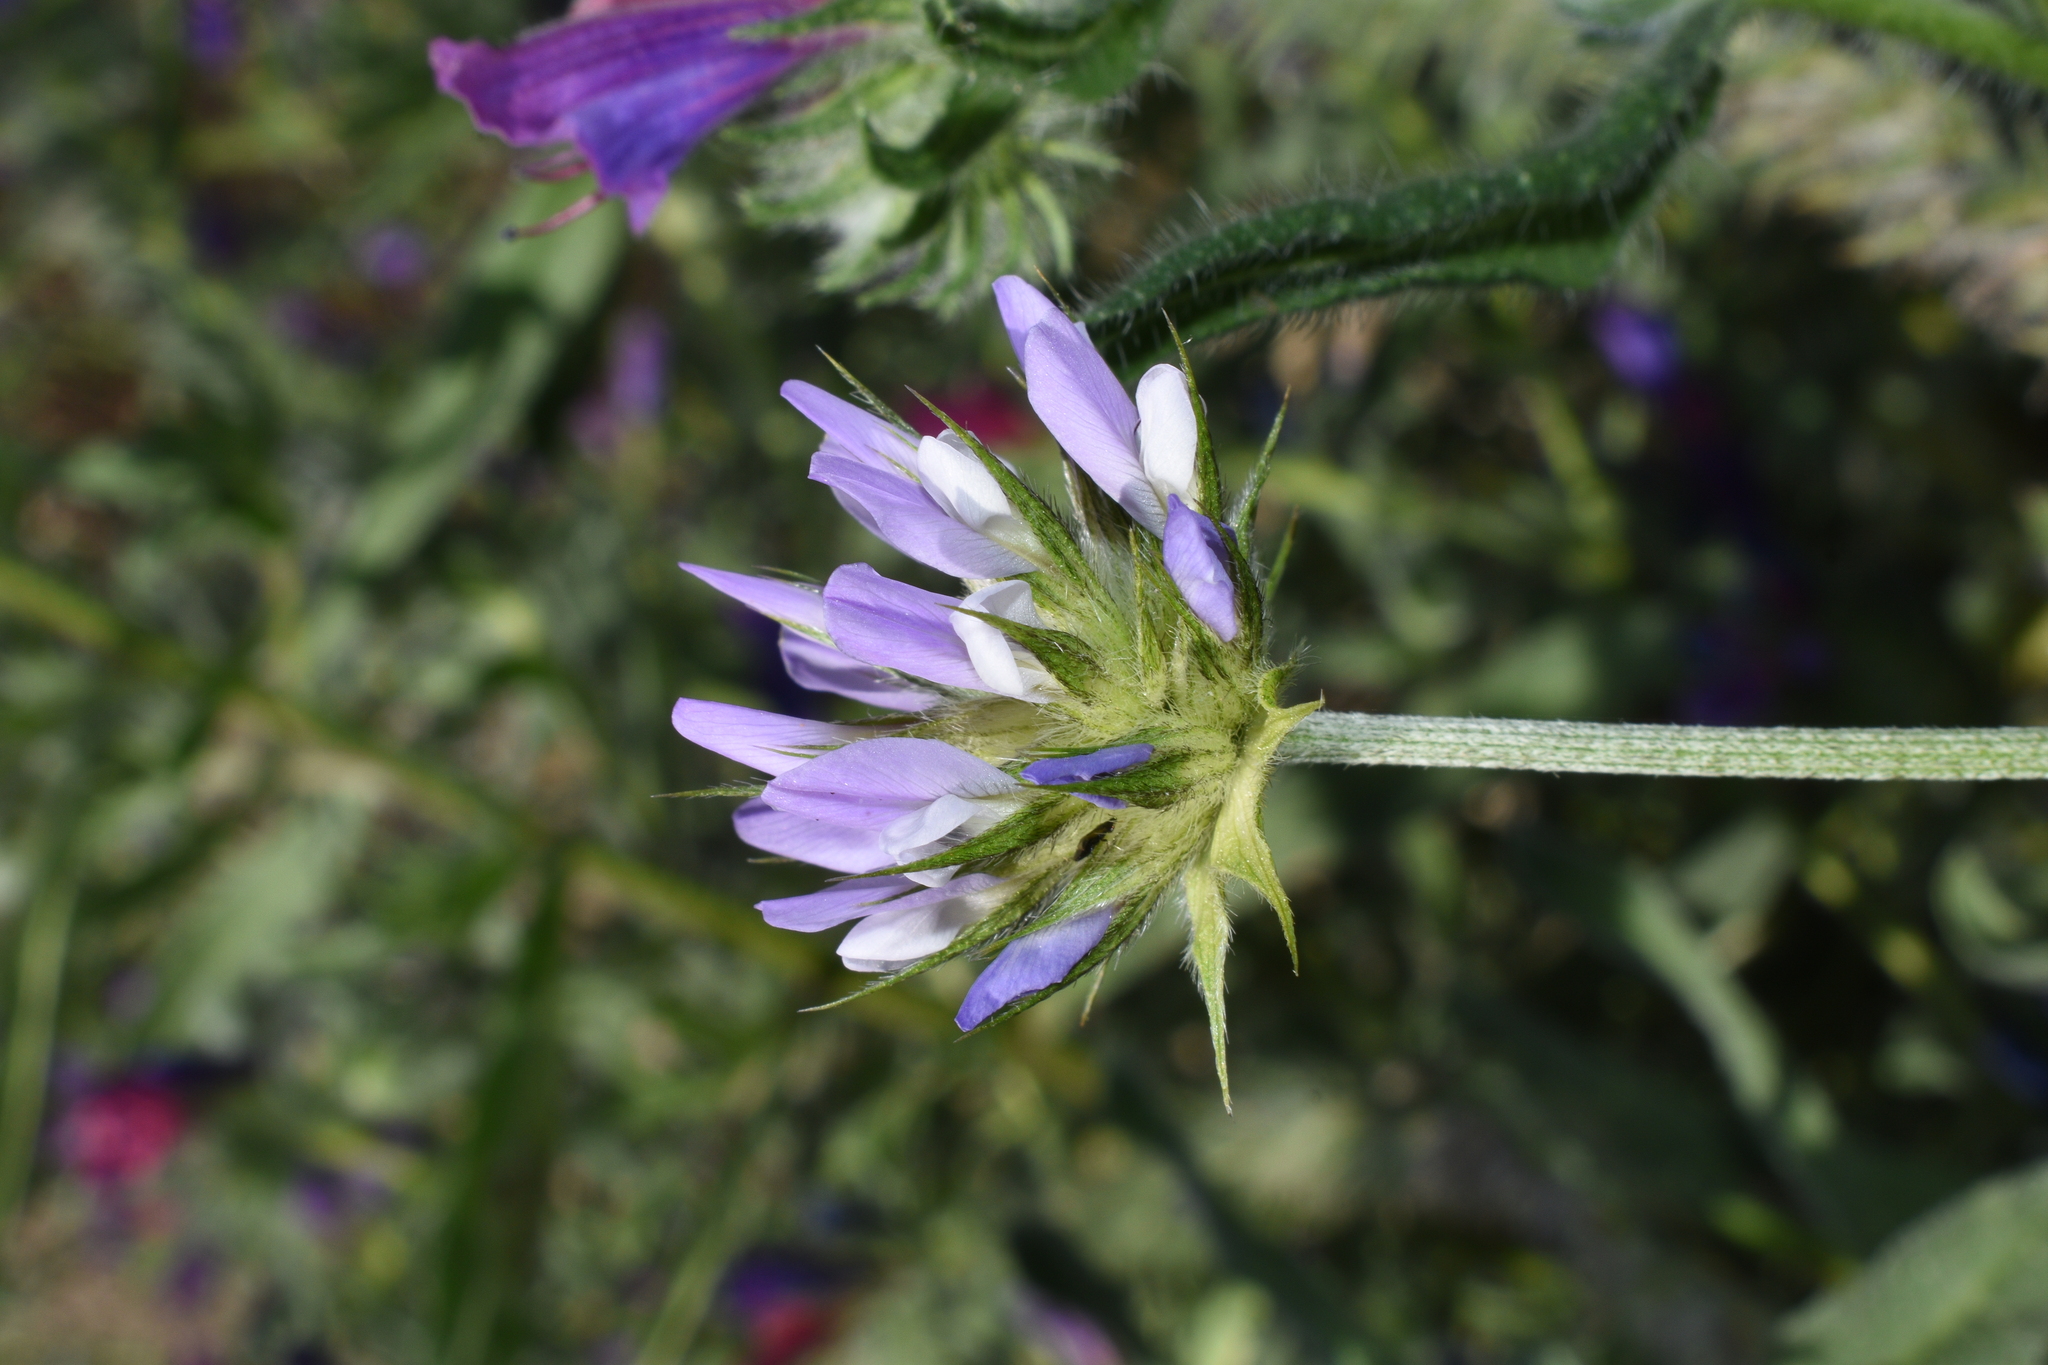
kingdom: Plantae
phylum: Tracheophyta
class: Magnoliopsida
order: Fabales
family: Fabaceae
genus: Bituminaria
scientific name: Bituminaria bituminosa
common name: Arabian pea
